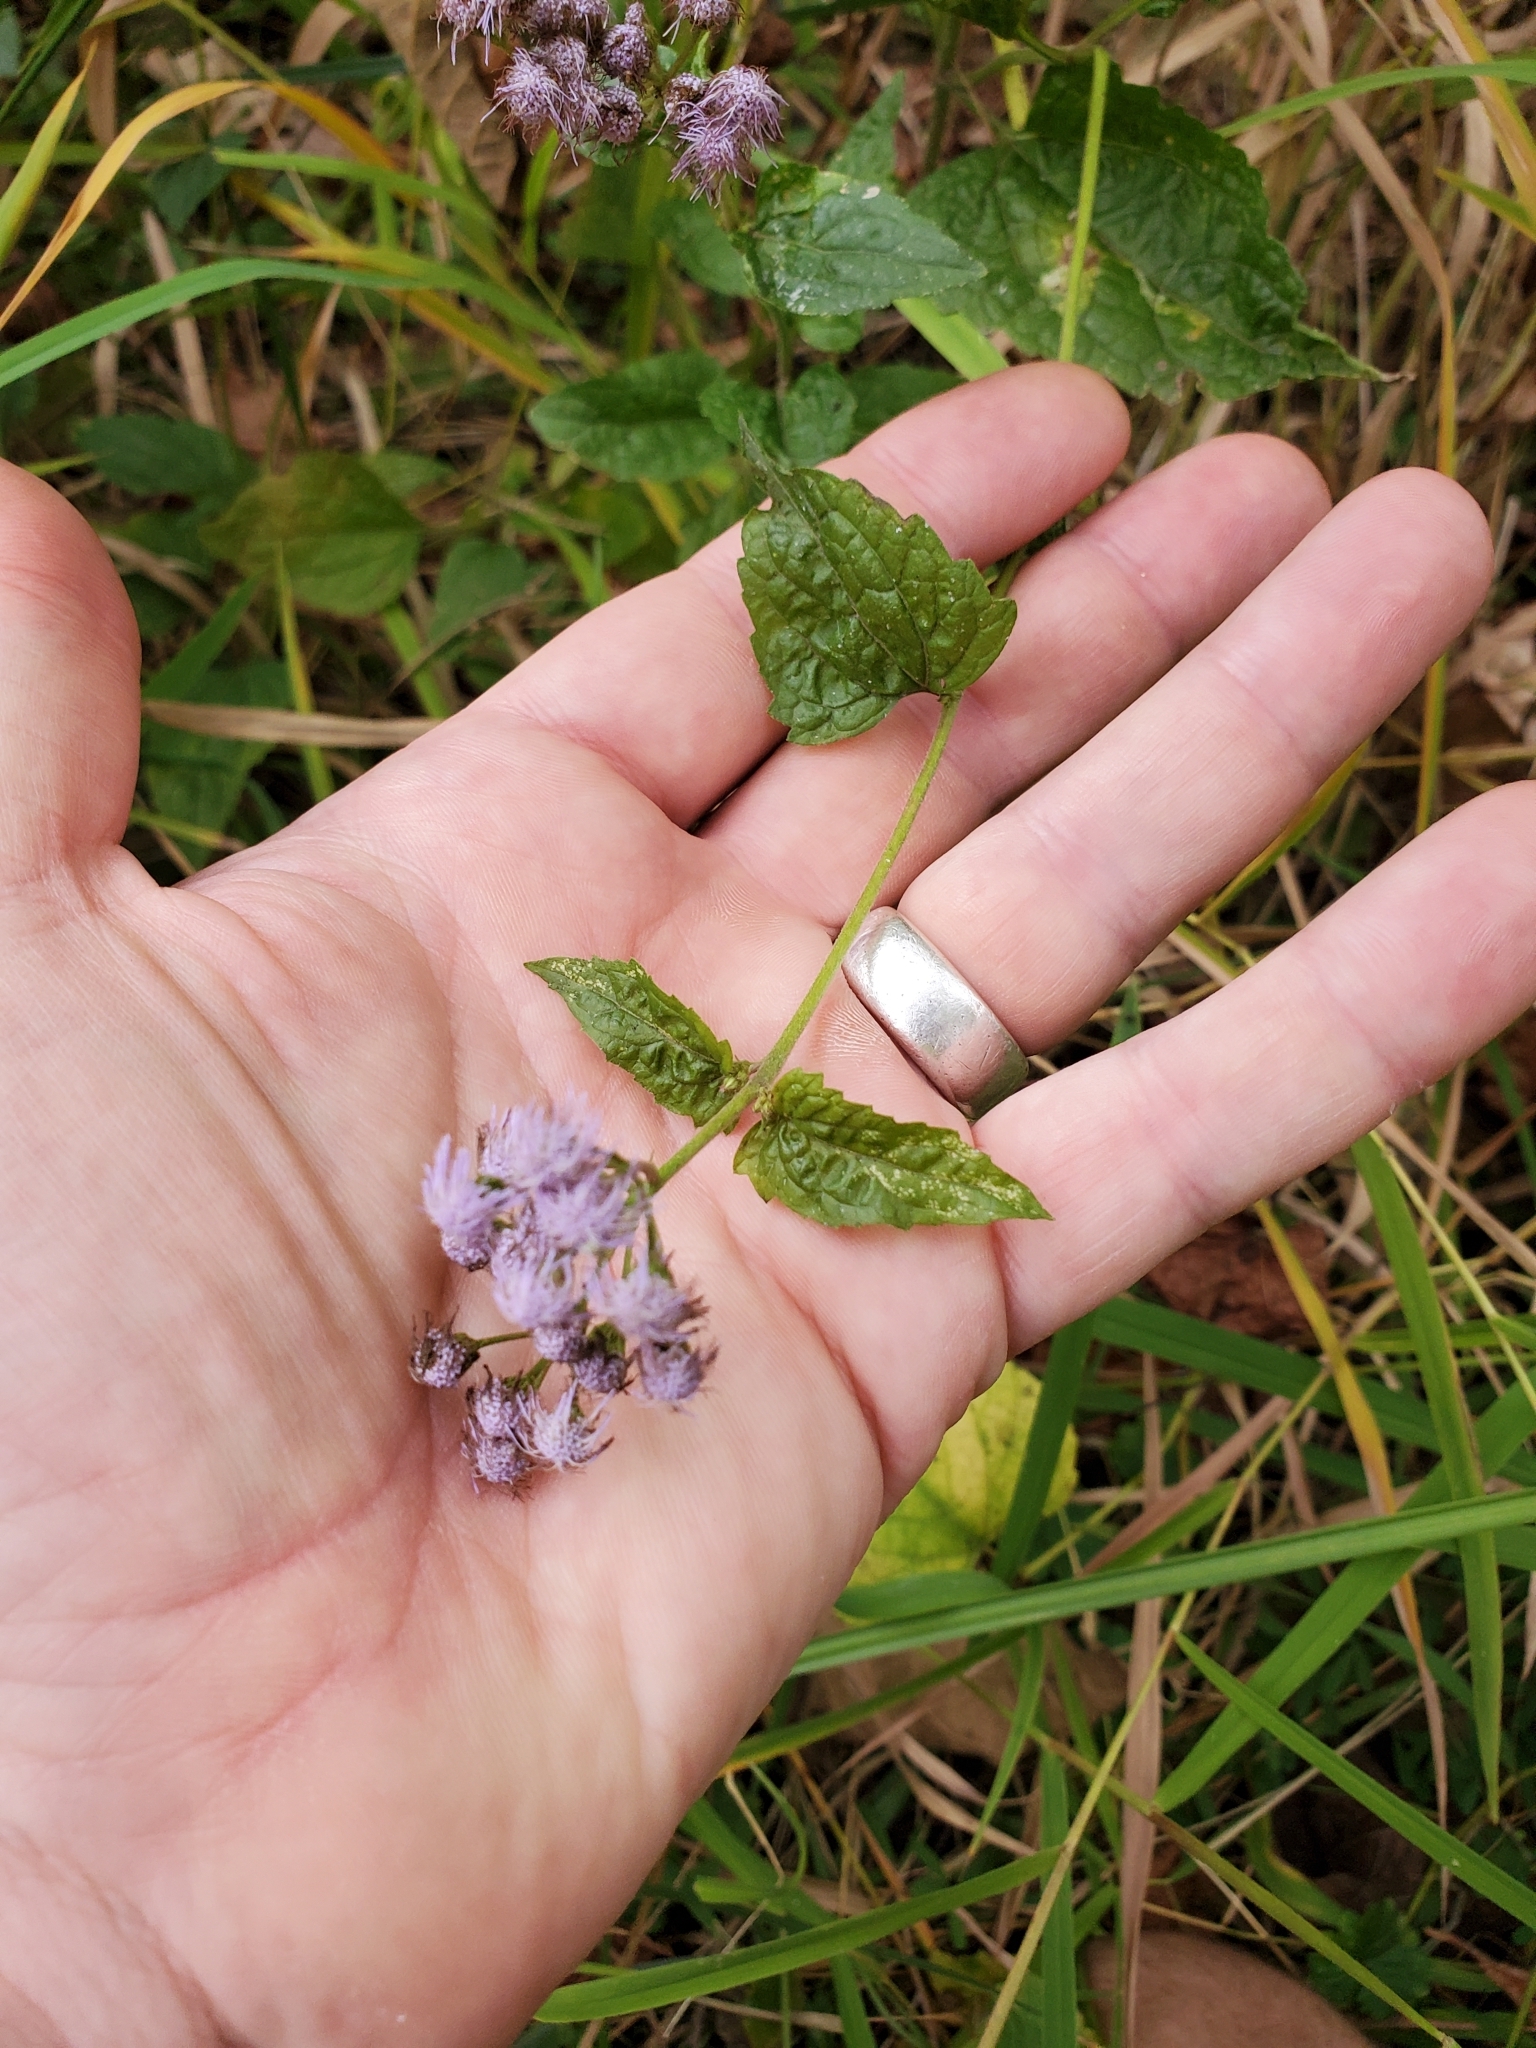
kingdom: Plantae
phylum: Tracheophyta
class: Magnoliopsida
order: Asterales
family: Asteraceae
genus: Conoclinium
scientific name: Conoclinium coelestinum
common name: Blue mistflower
